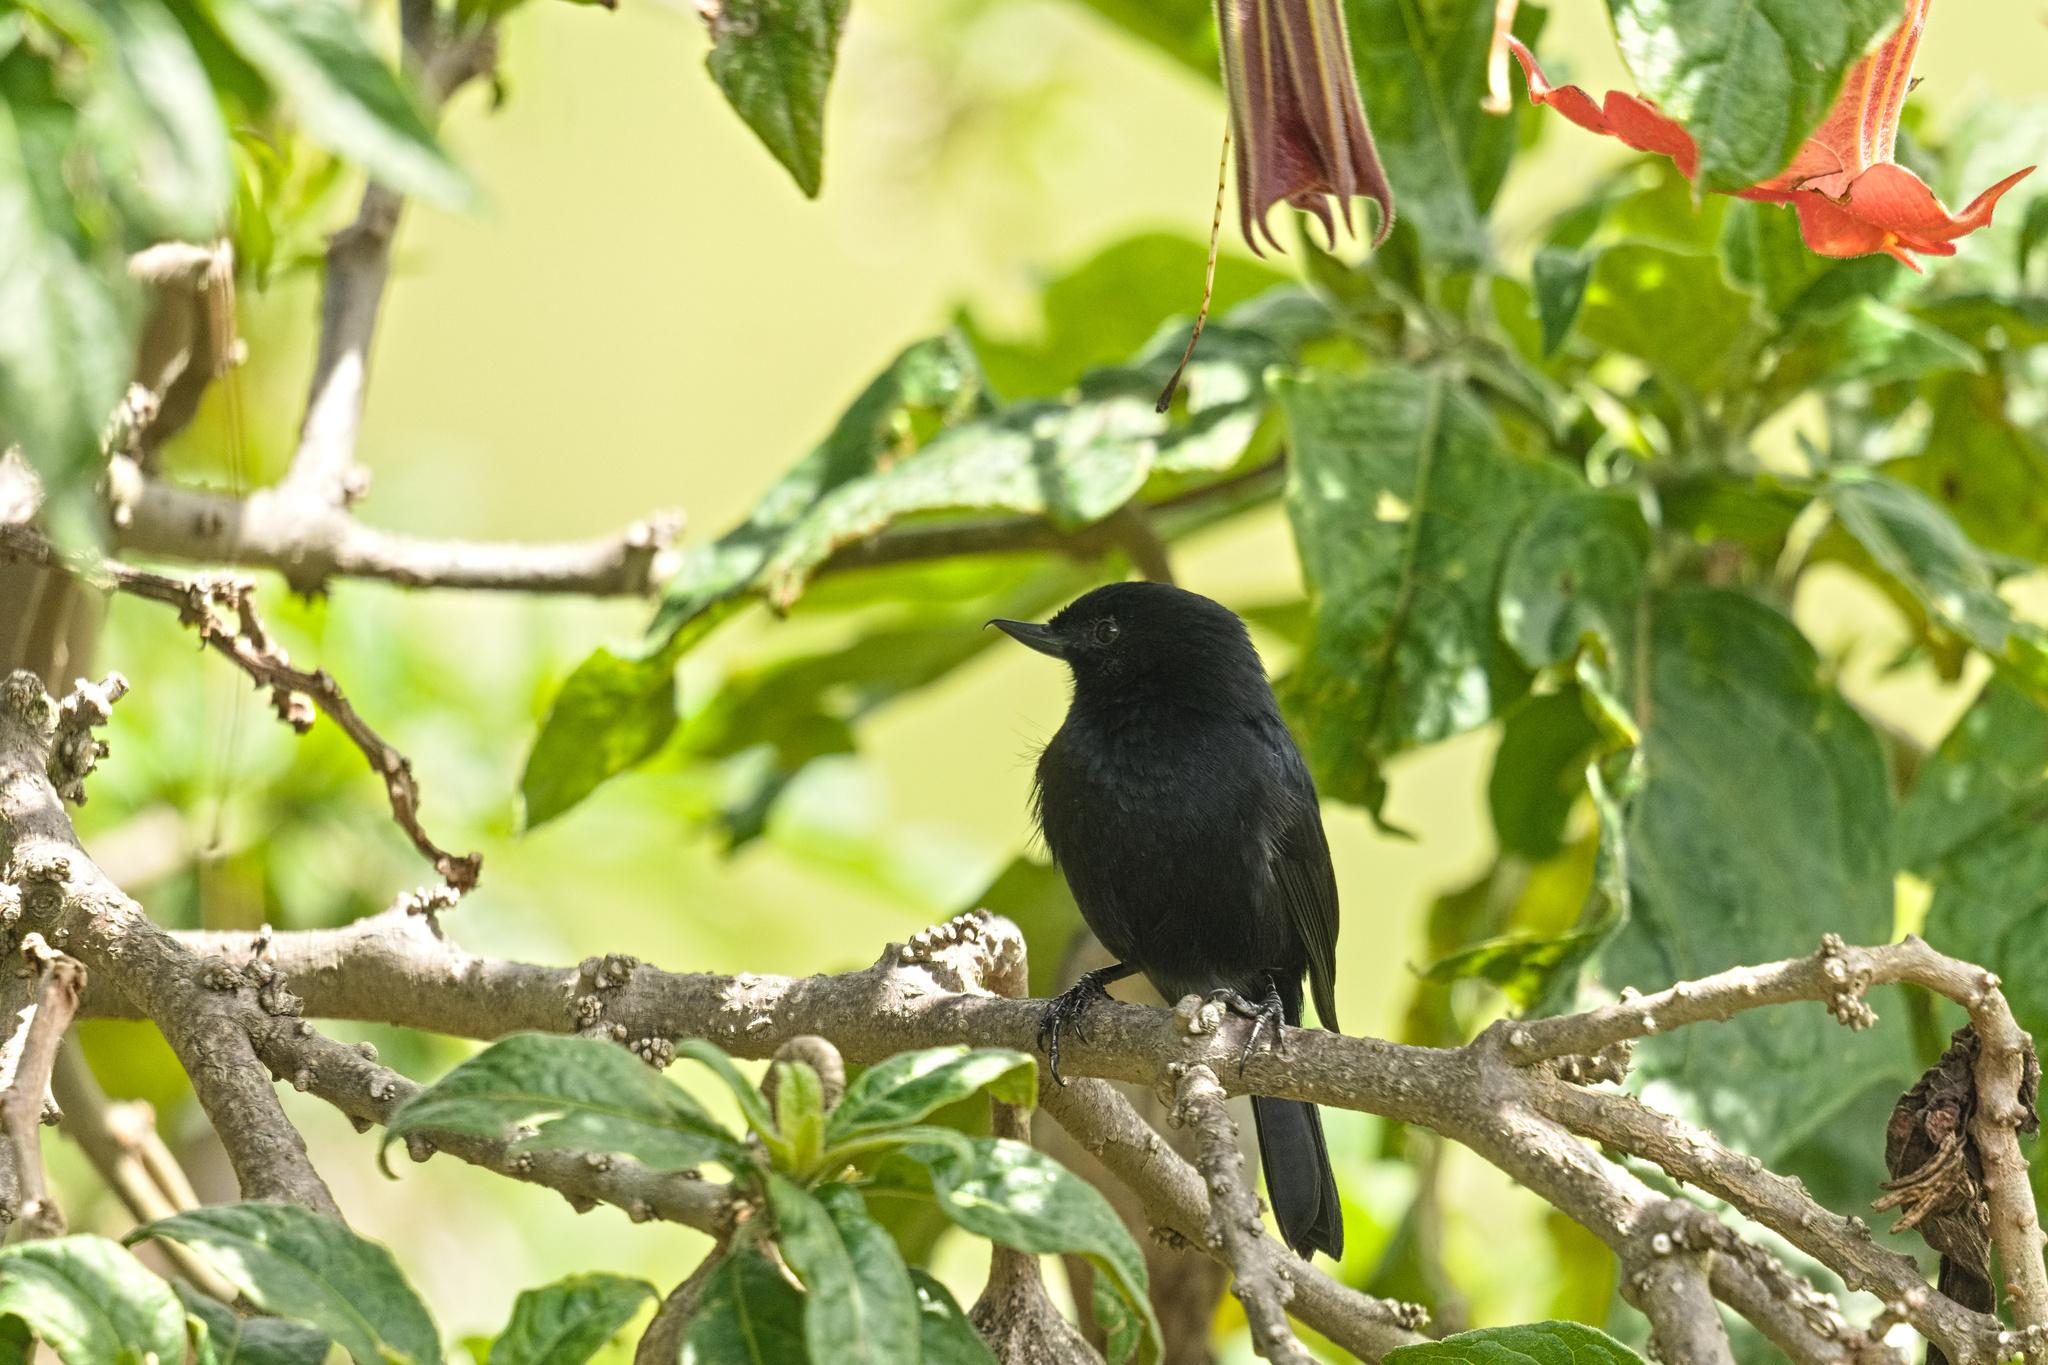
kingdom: Animalia
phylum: Chordata
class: Aves
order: Passeriformes
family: Thraupidae
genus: Diglossa
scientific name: Diglossa humeralis
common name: Black flowerpiercer
